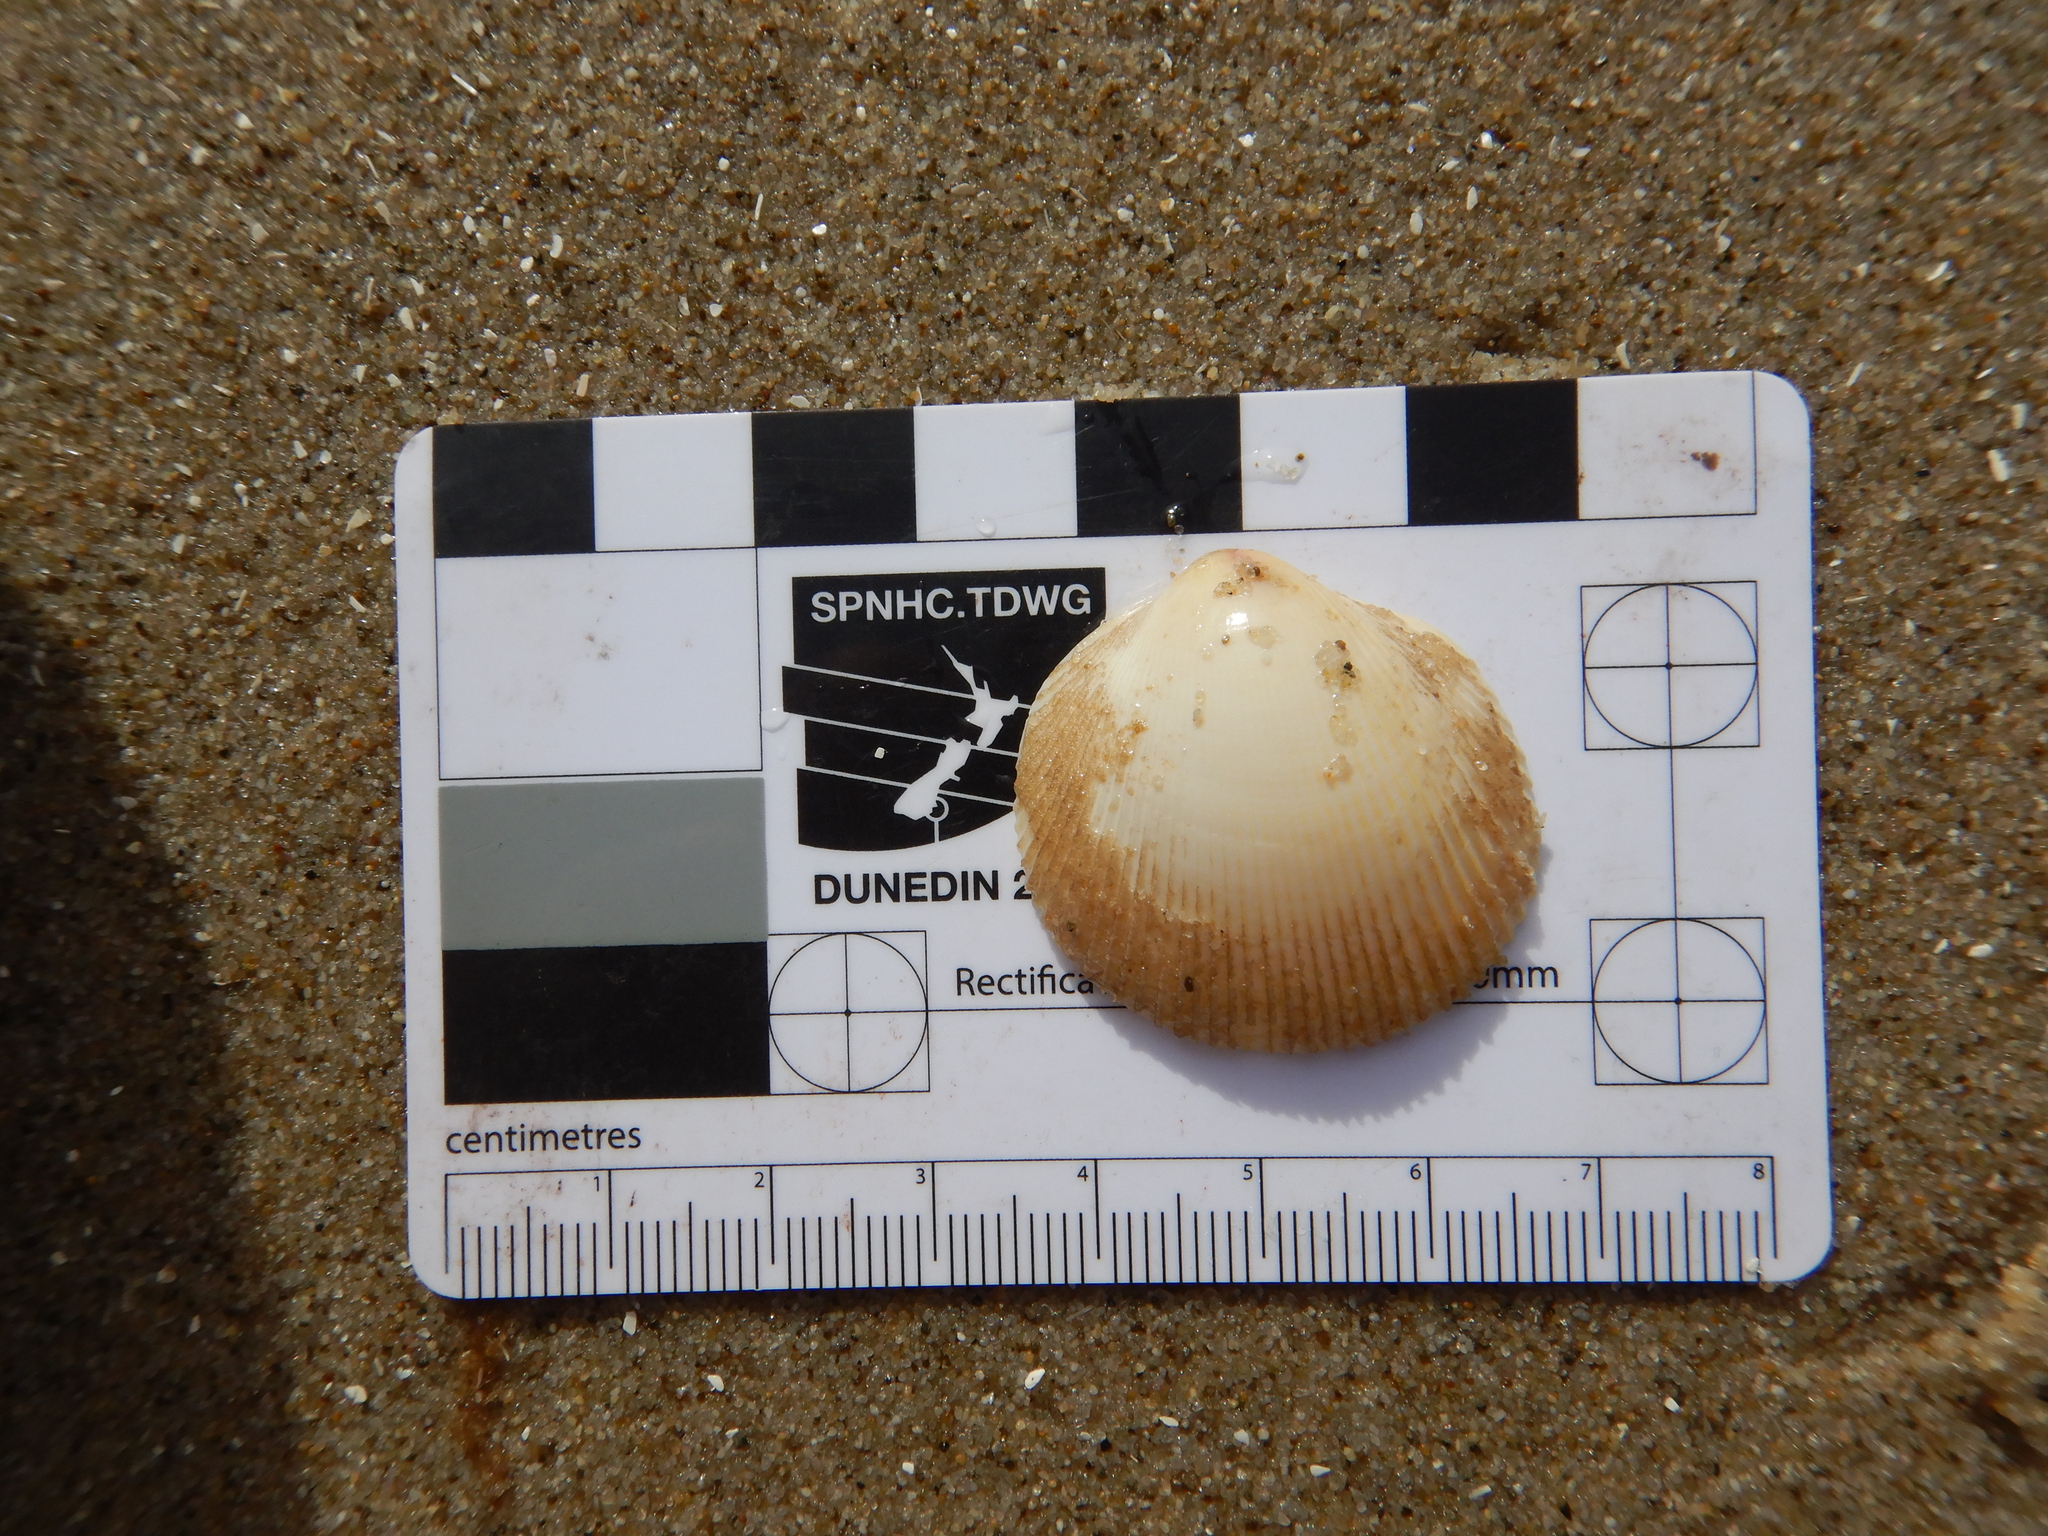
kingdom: Animalia
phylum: Mollusca
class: Bivalvia
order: Cardiida
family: Cardiidae
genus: Fulvia
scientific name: Fulvia tenuicostata
